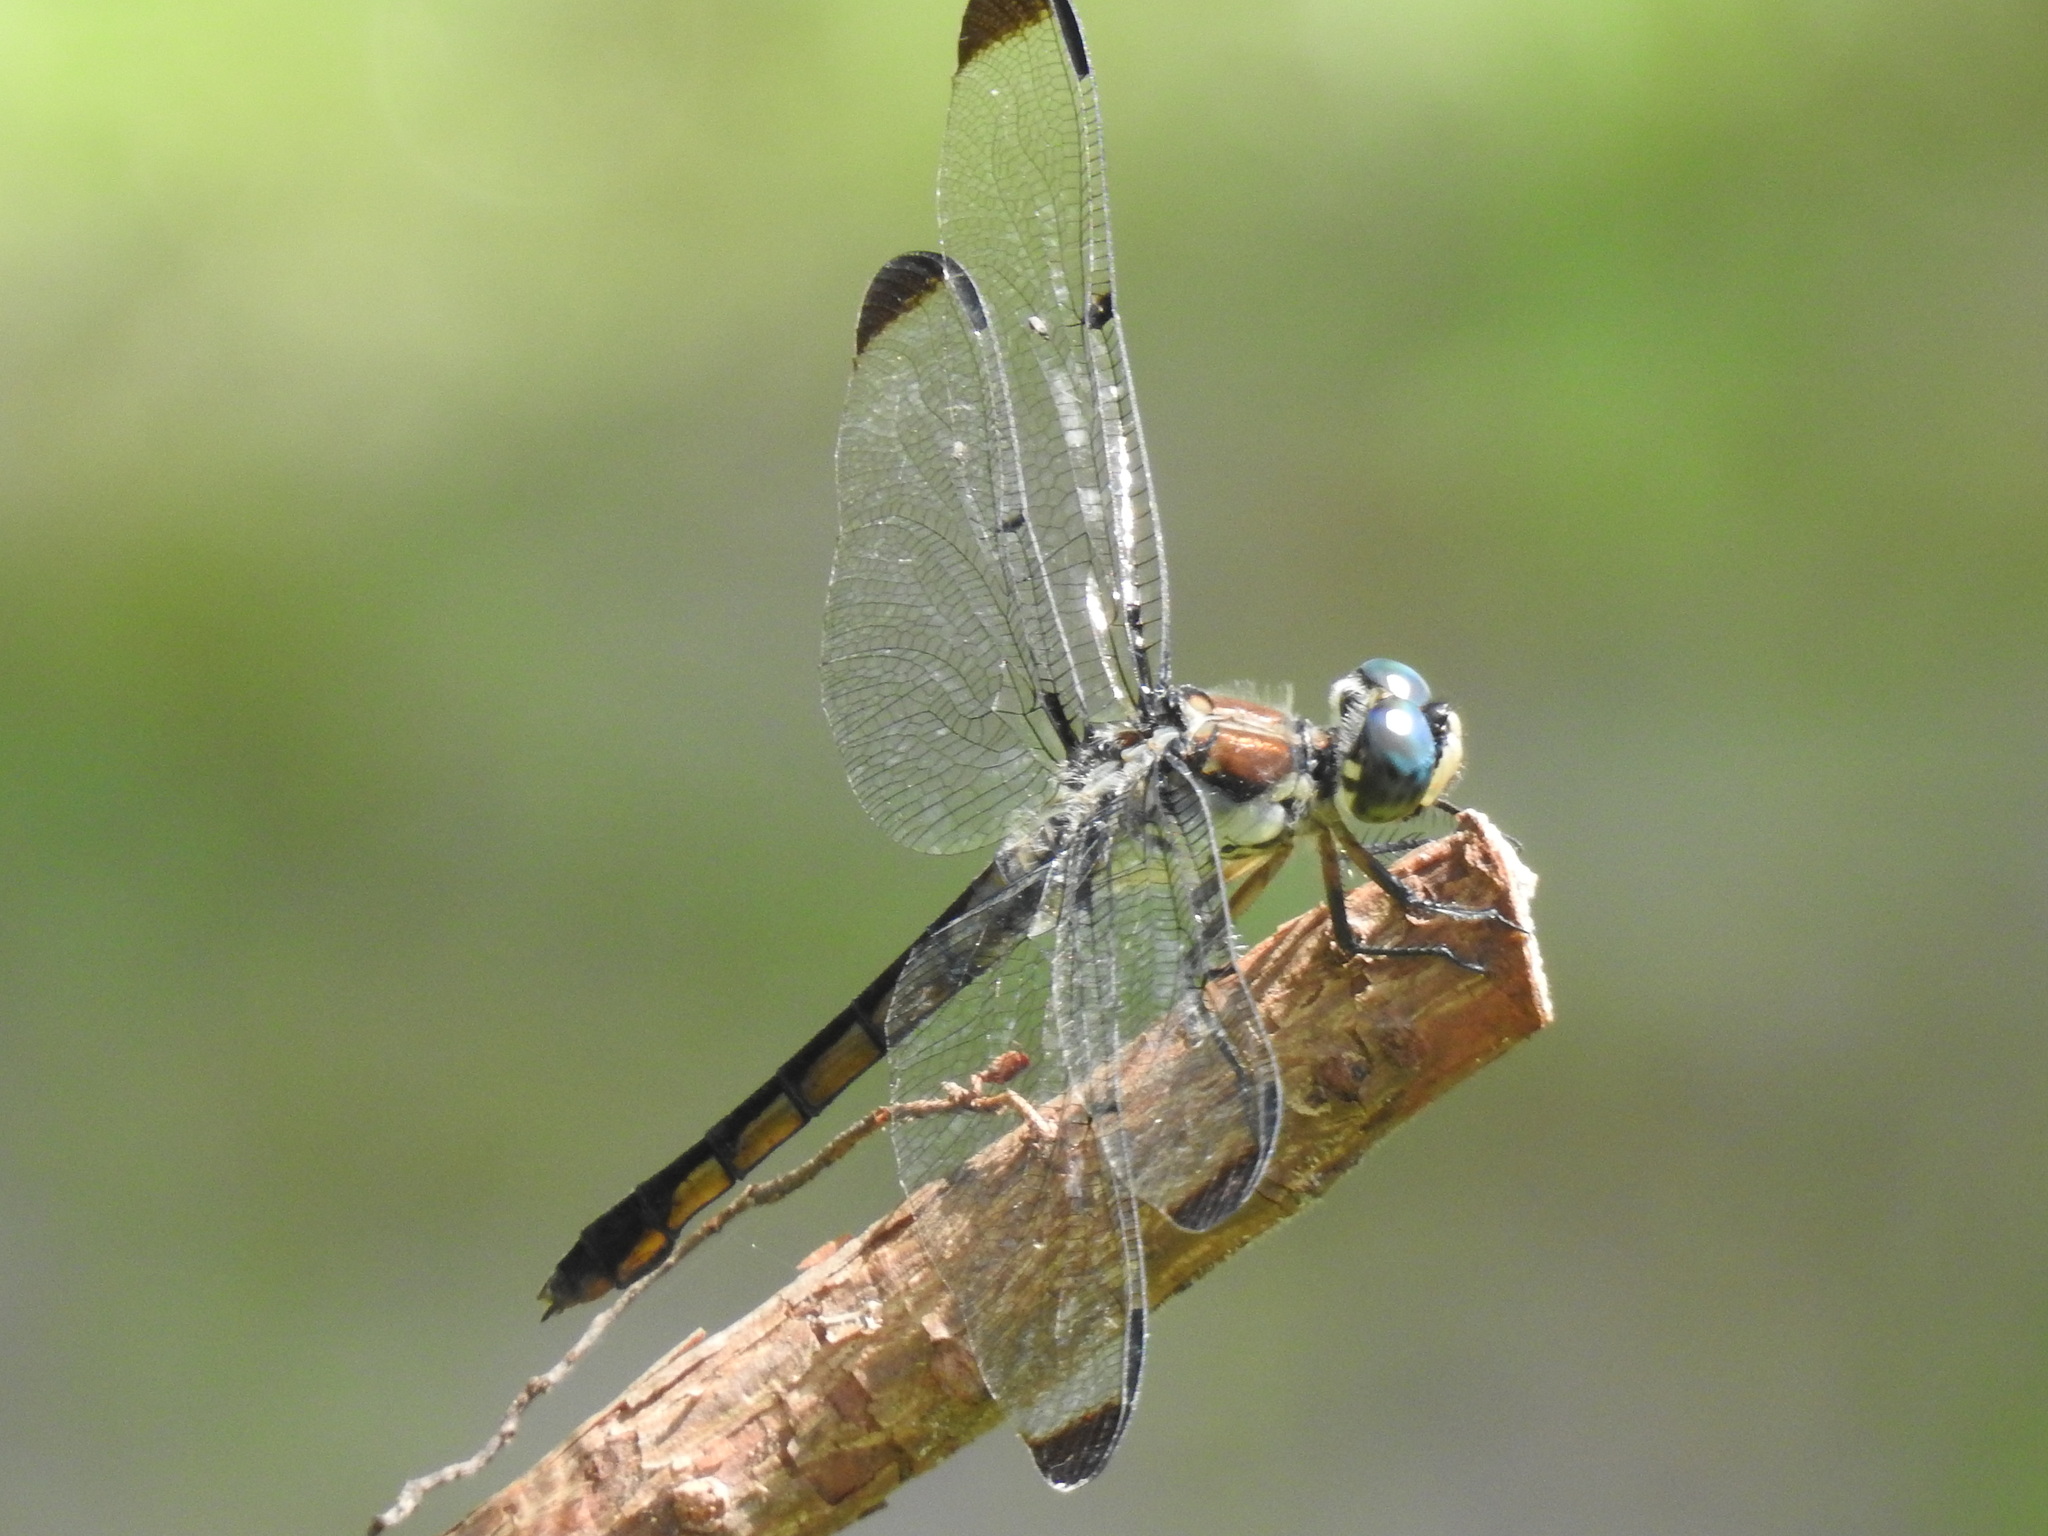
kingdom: Animalia
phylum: Arthropoda
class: Insecta
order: Odonata
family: Libellulidae
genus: Libellula
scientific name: Libellula vibrans
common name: Great blue skimmer
